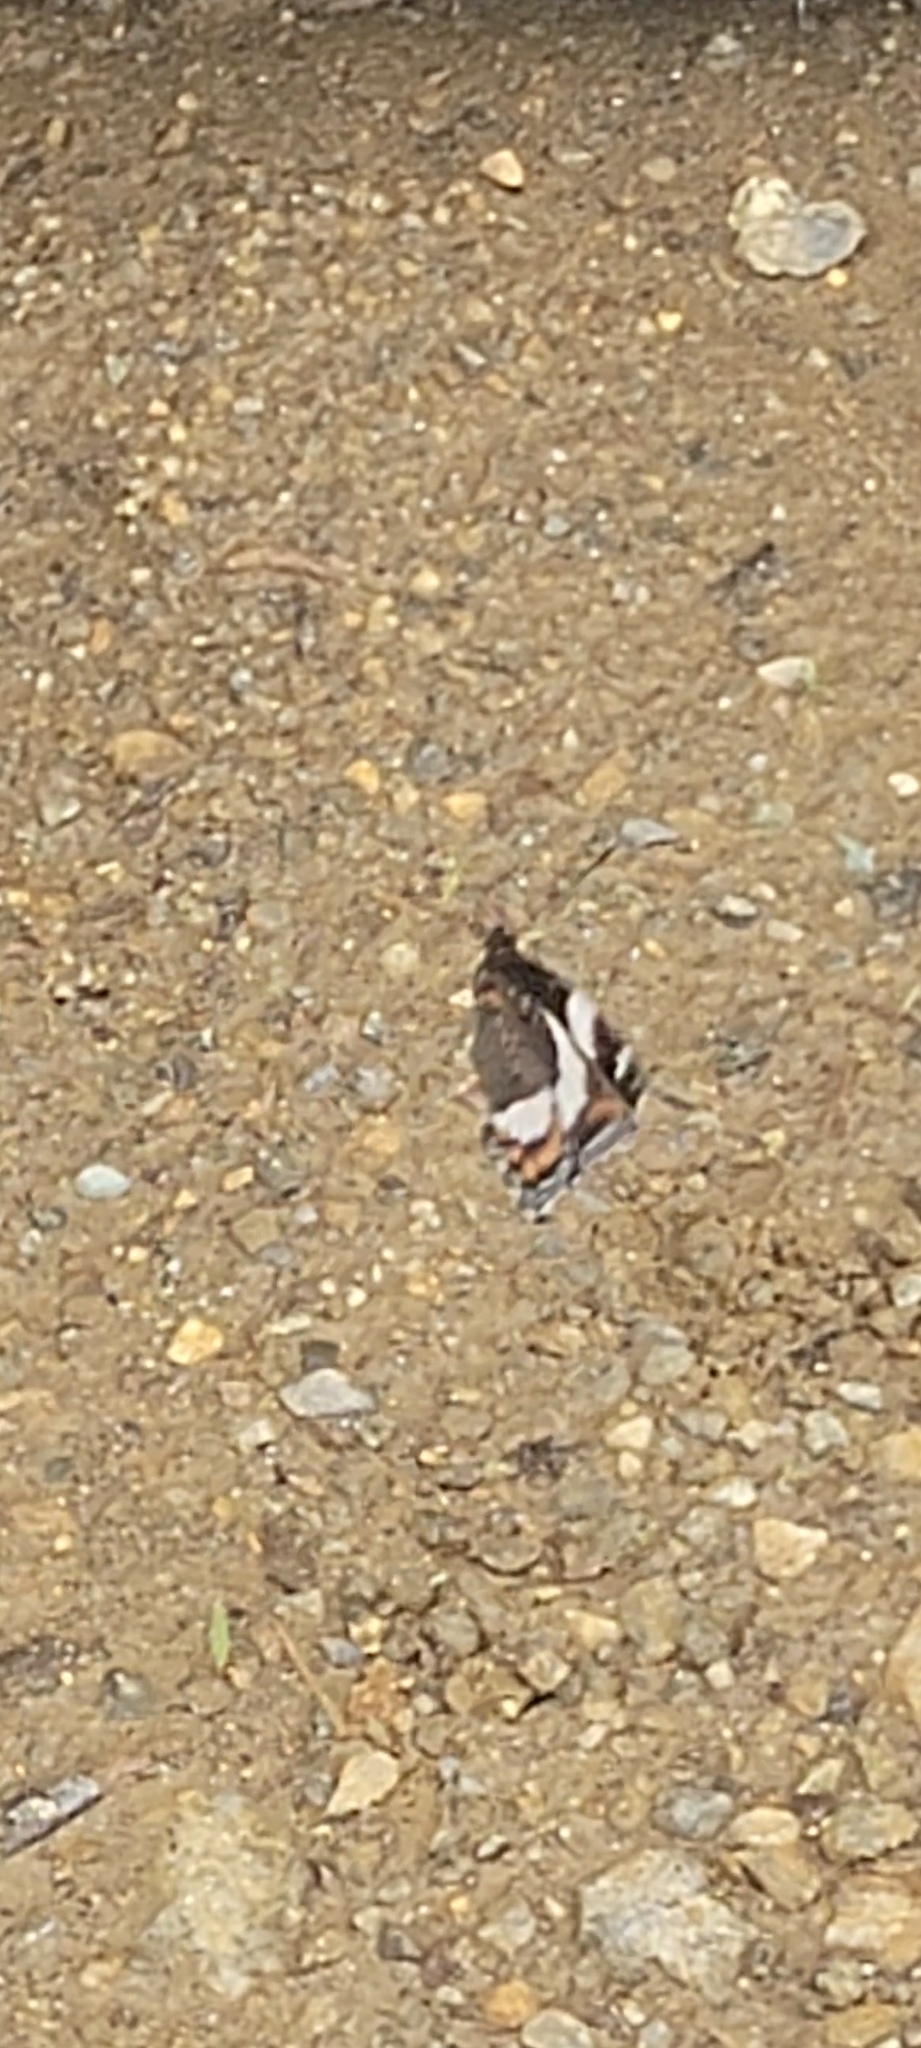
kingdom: Animalia
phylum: Arthropoda
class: Insecta
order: Lepidoptera
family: Nymphalidae
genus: Limenitis
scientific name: Limenitis arthemis
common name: Red-spotted admiral
